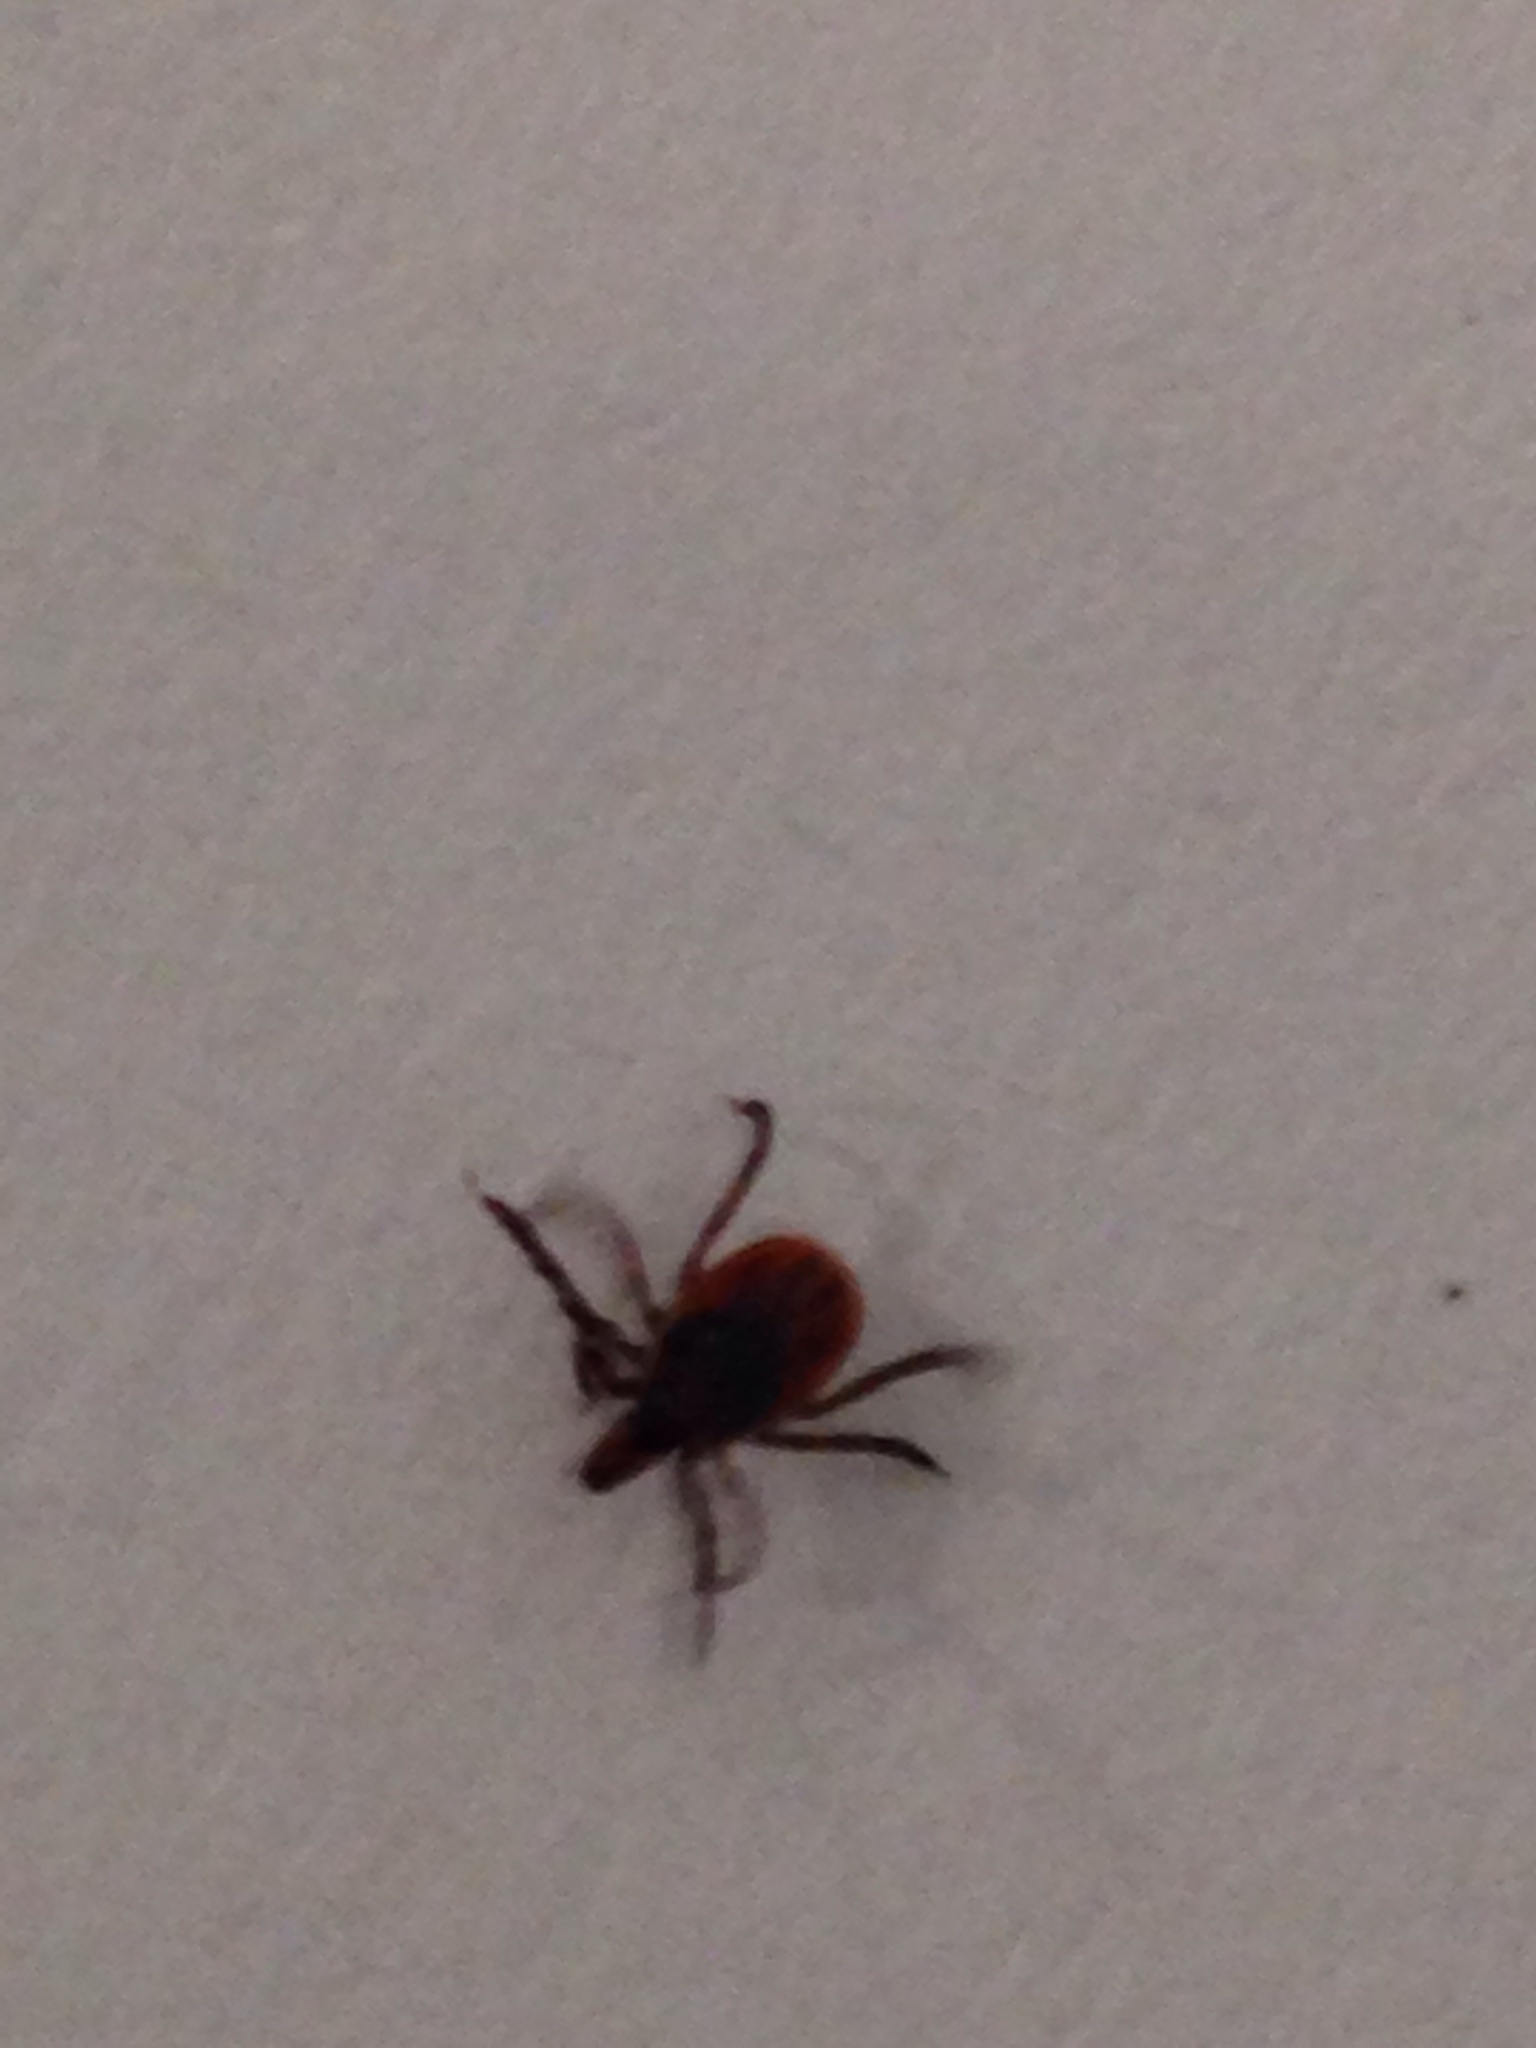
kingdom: Animalia
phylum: Arthropoda
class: Arachnida
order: Ixodida
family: Ixodidae
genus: Ixodes
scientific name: Ixodes scapularis
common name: Black legged tick
